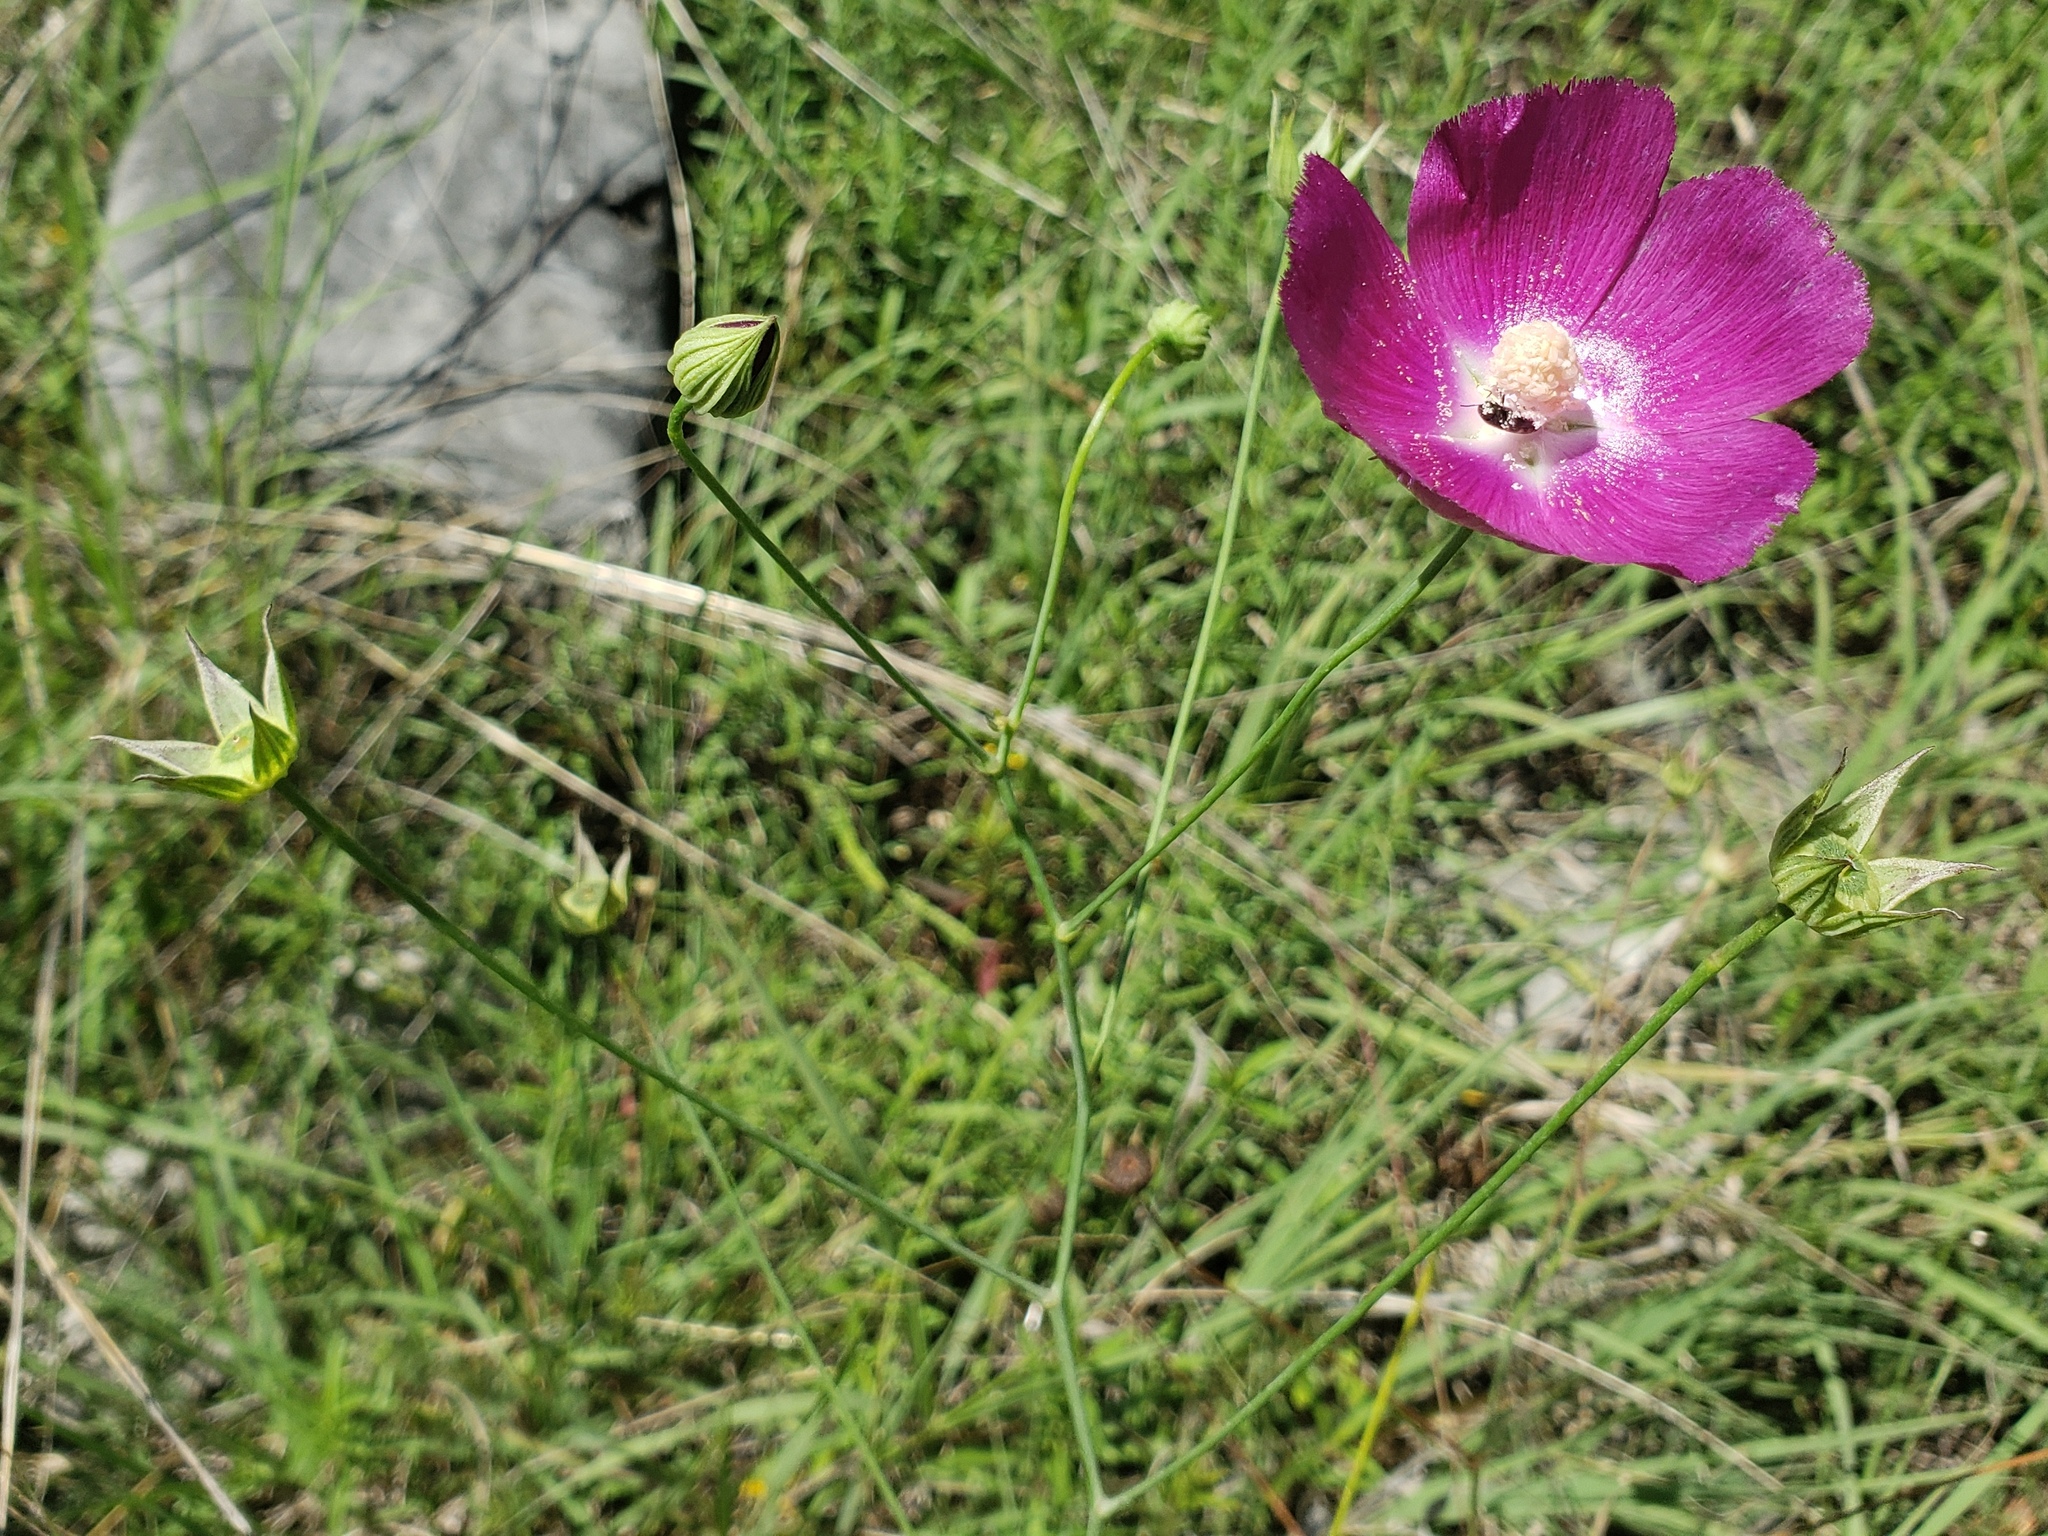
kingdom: Plantae
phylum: Tracheophyta
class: Magnoliopsida
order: Malvales
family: Malvaceae
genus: Callirhoe
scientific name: Callirhoe pedata
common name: Finger poppy-mallow
